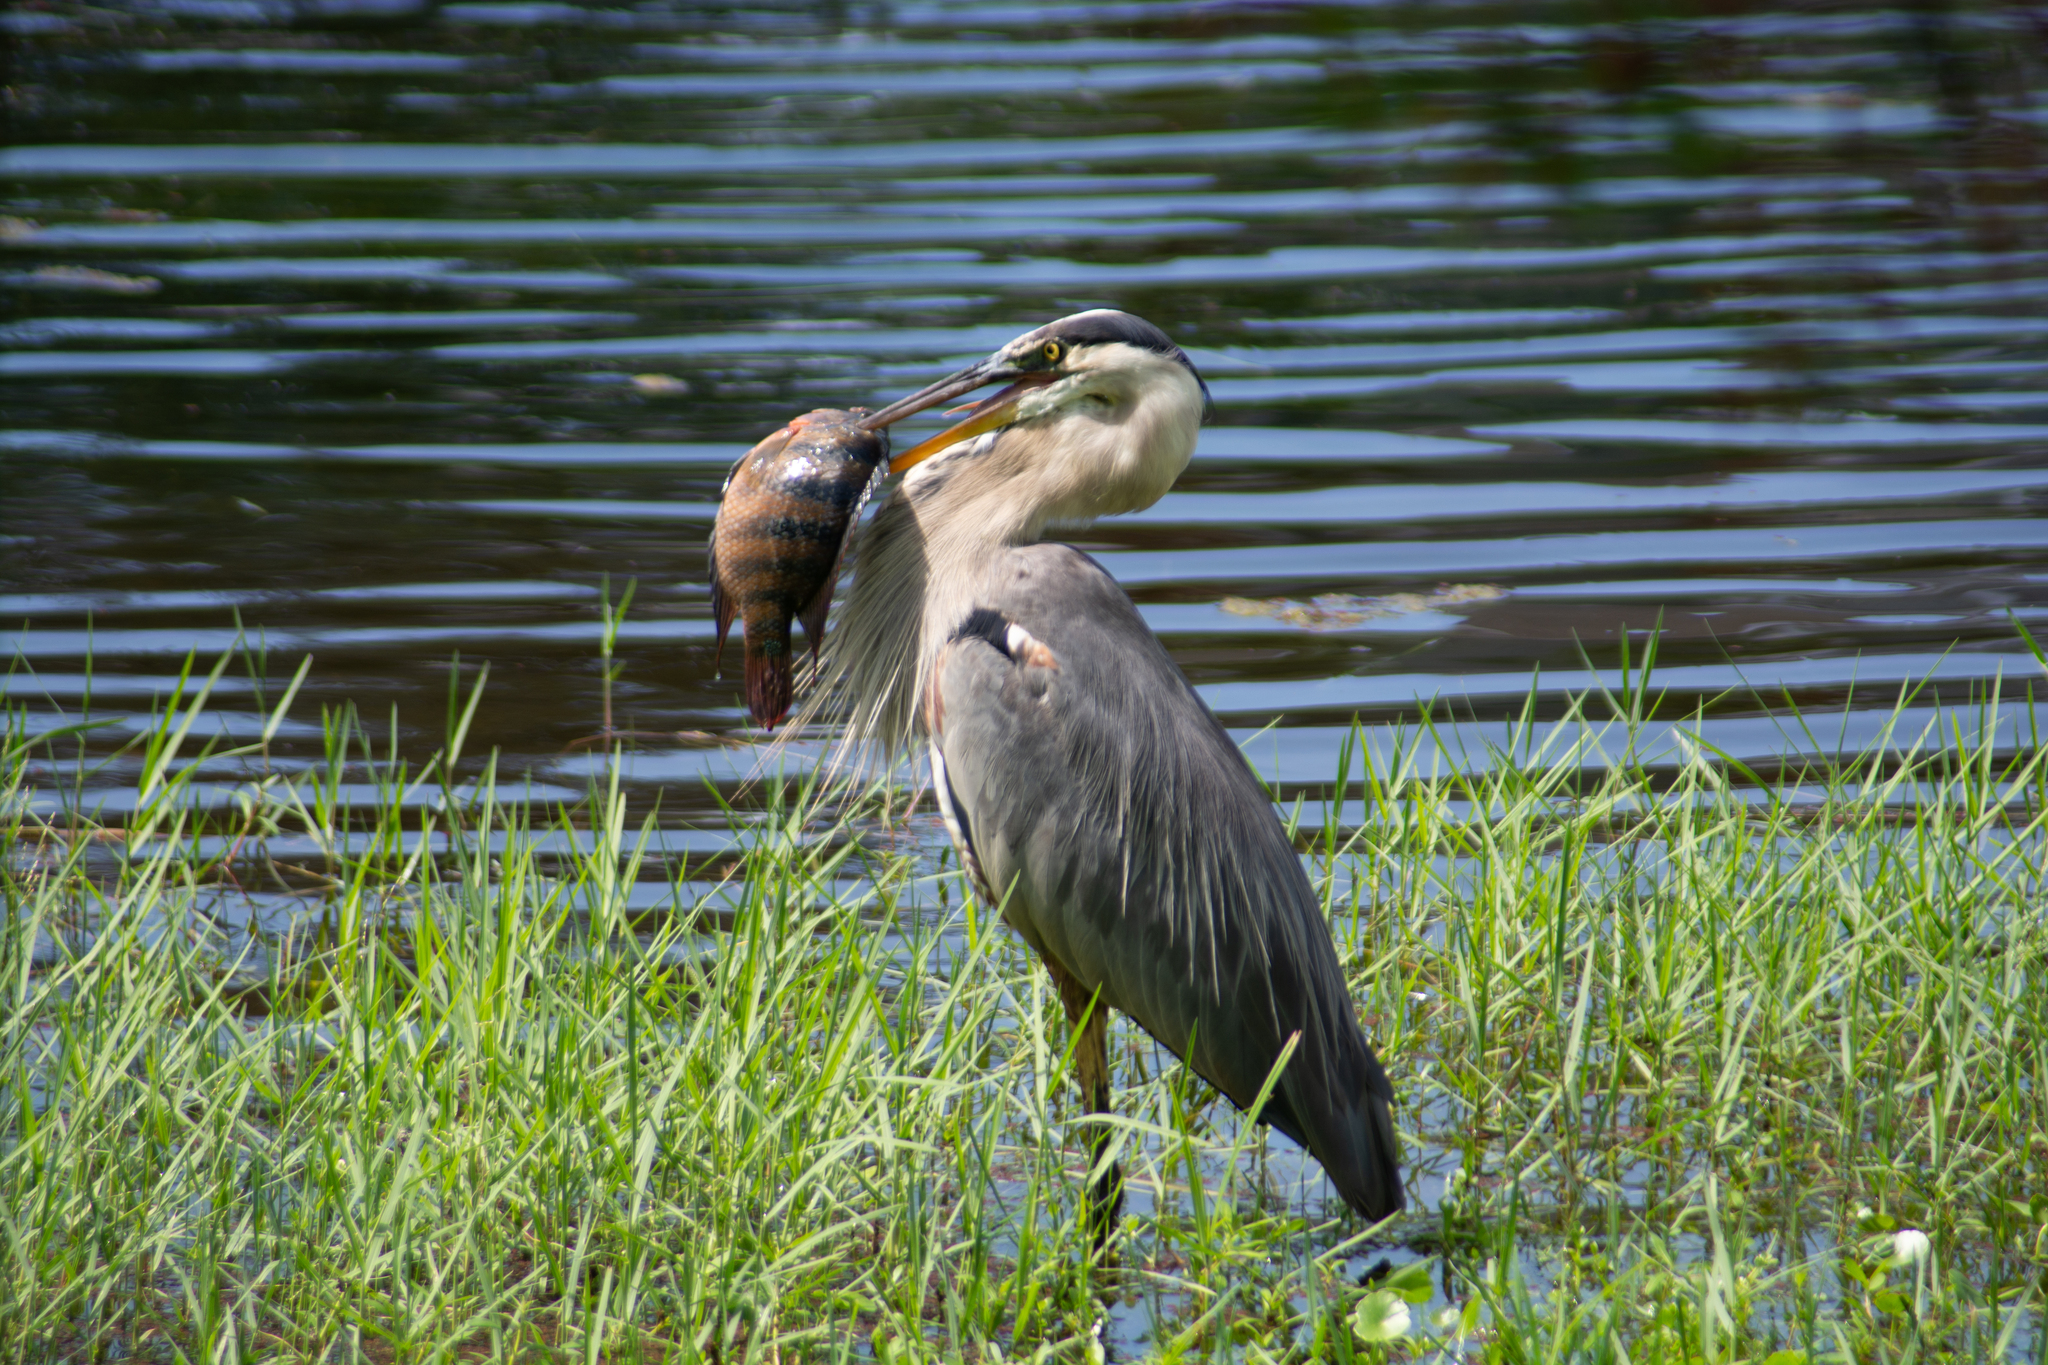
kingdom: Animalia
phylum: Chordata
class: Aves
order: Pelecaniformes
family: Ardeidae
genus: Ardea
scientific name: Ardea herodias
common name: Great blue heron
